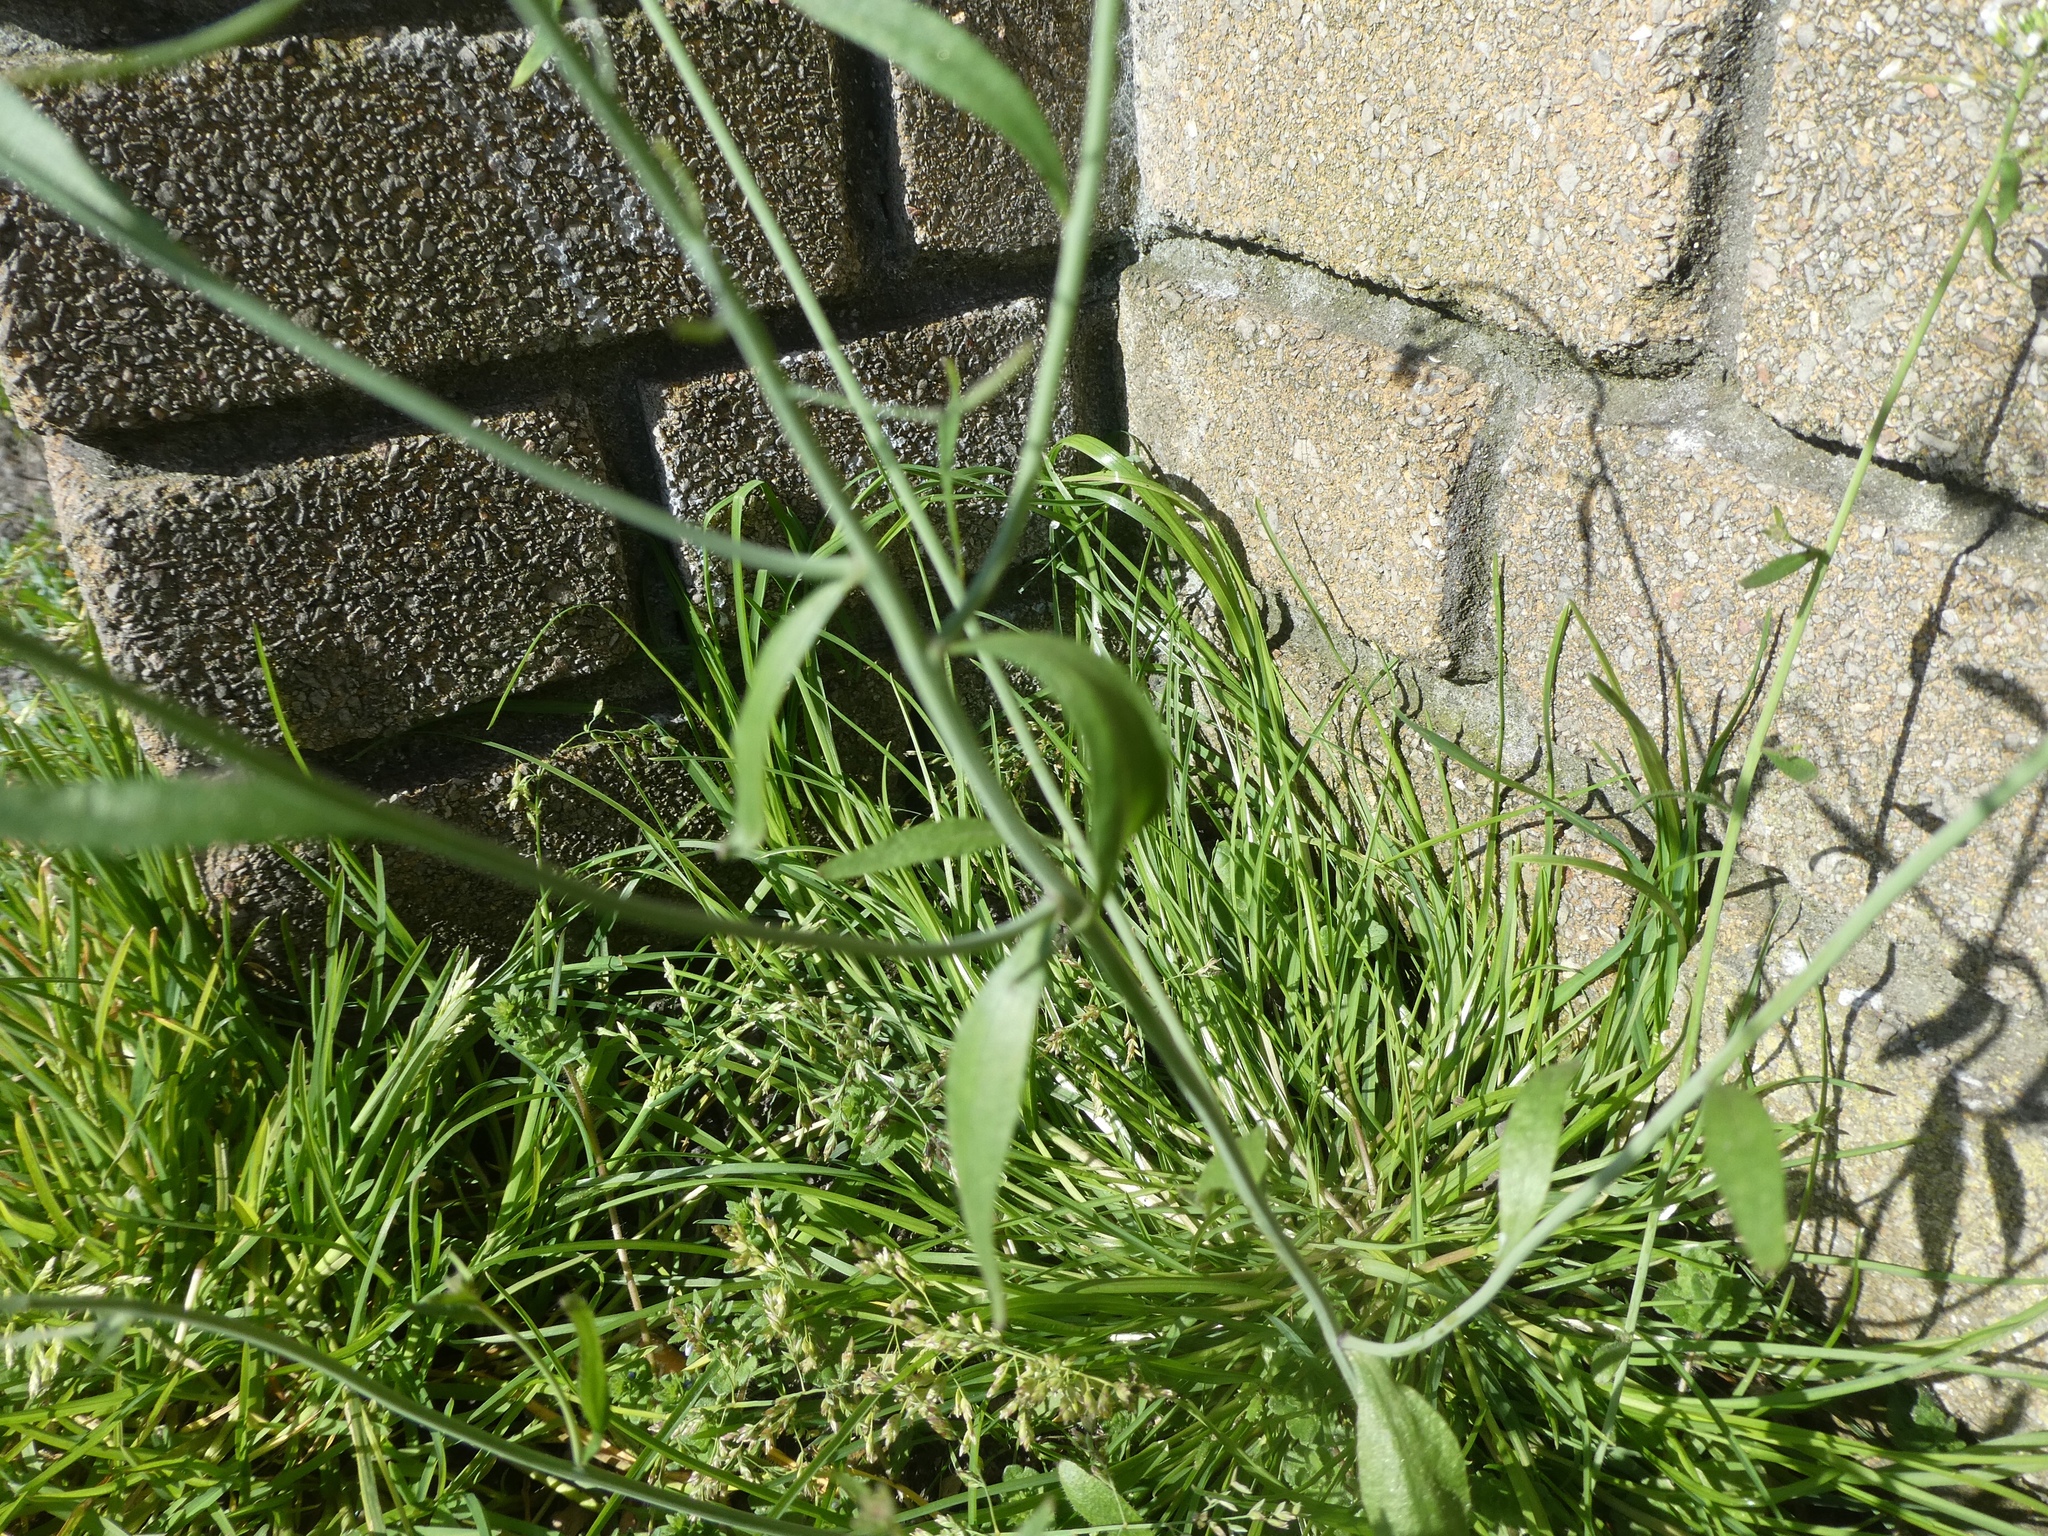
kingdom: Plantae
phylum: Tracheophyta
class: Magnoliopsida
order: Brassicales
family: Brassicaceae
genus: Arabidopsis
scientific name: Arabidopsis thaliana
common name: Thale cress
